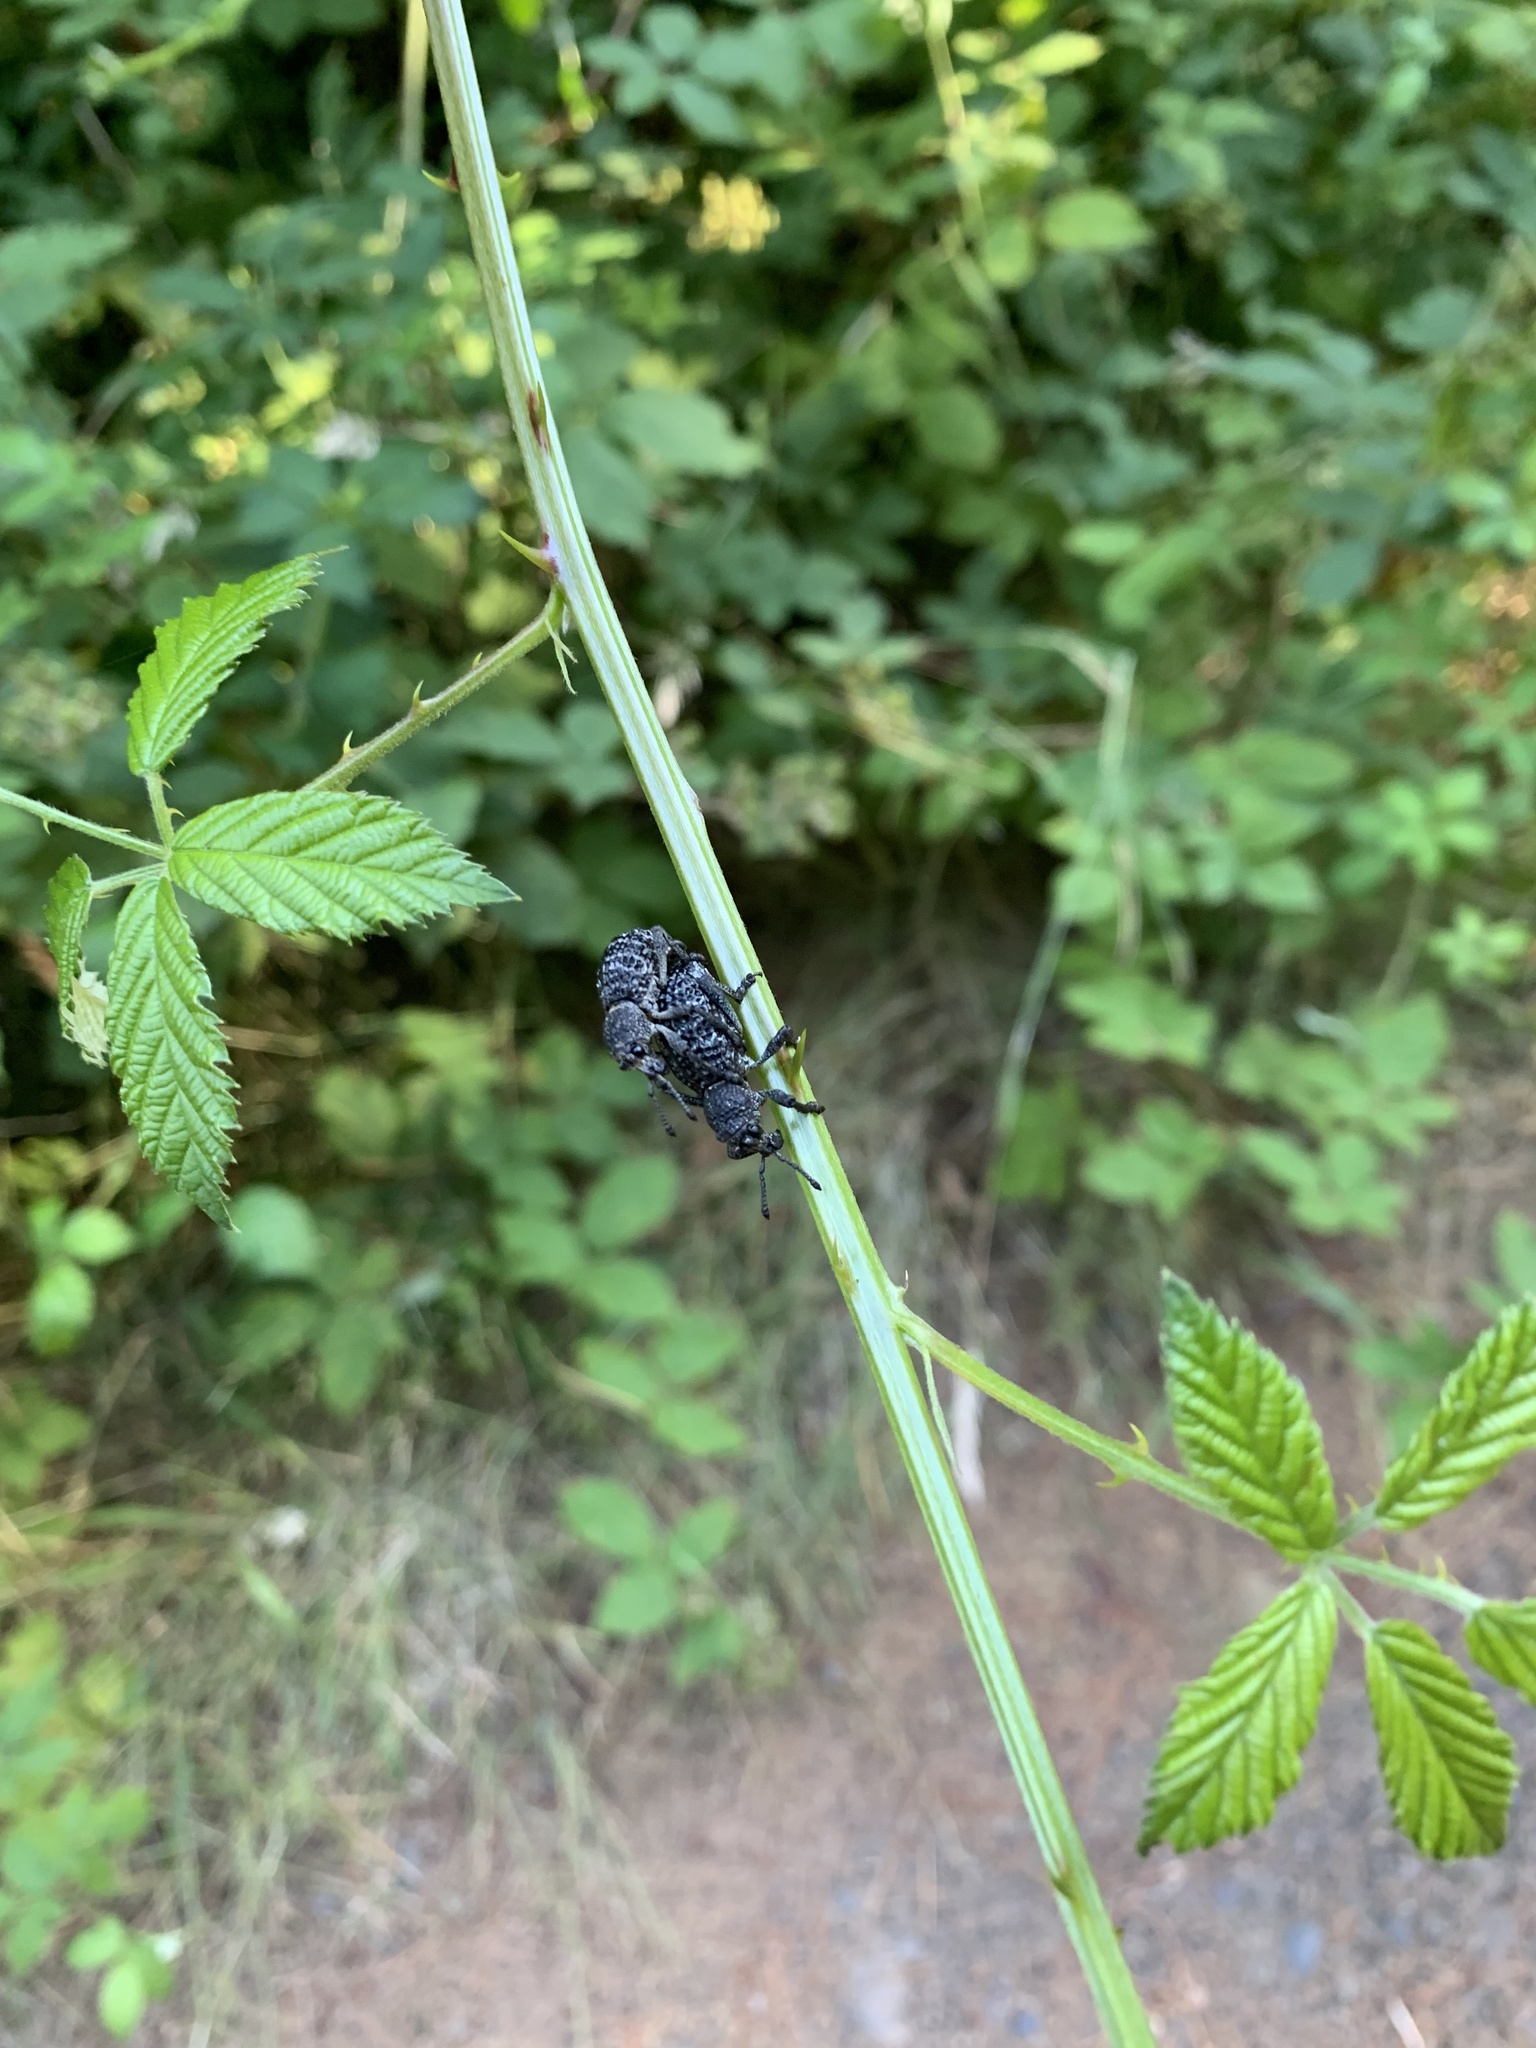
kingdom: Animalia
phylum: Arthropoda
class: Insecta
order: Coleoptera
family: Curculionidae
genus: Aegorhinus
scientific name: Aegorhinus superciliosus
